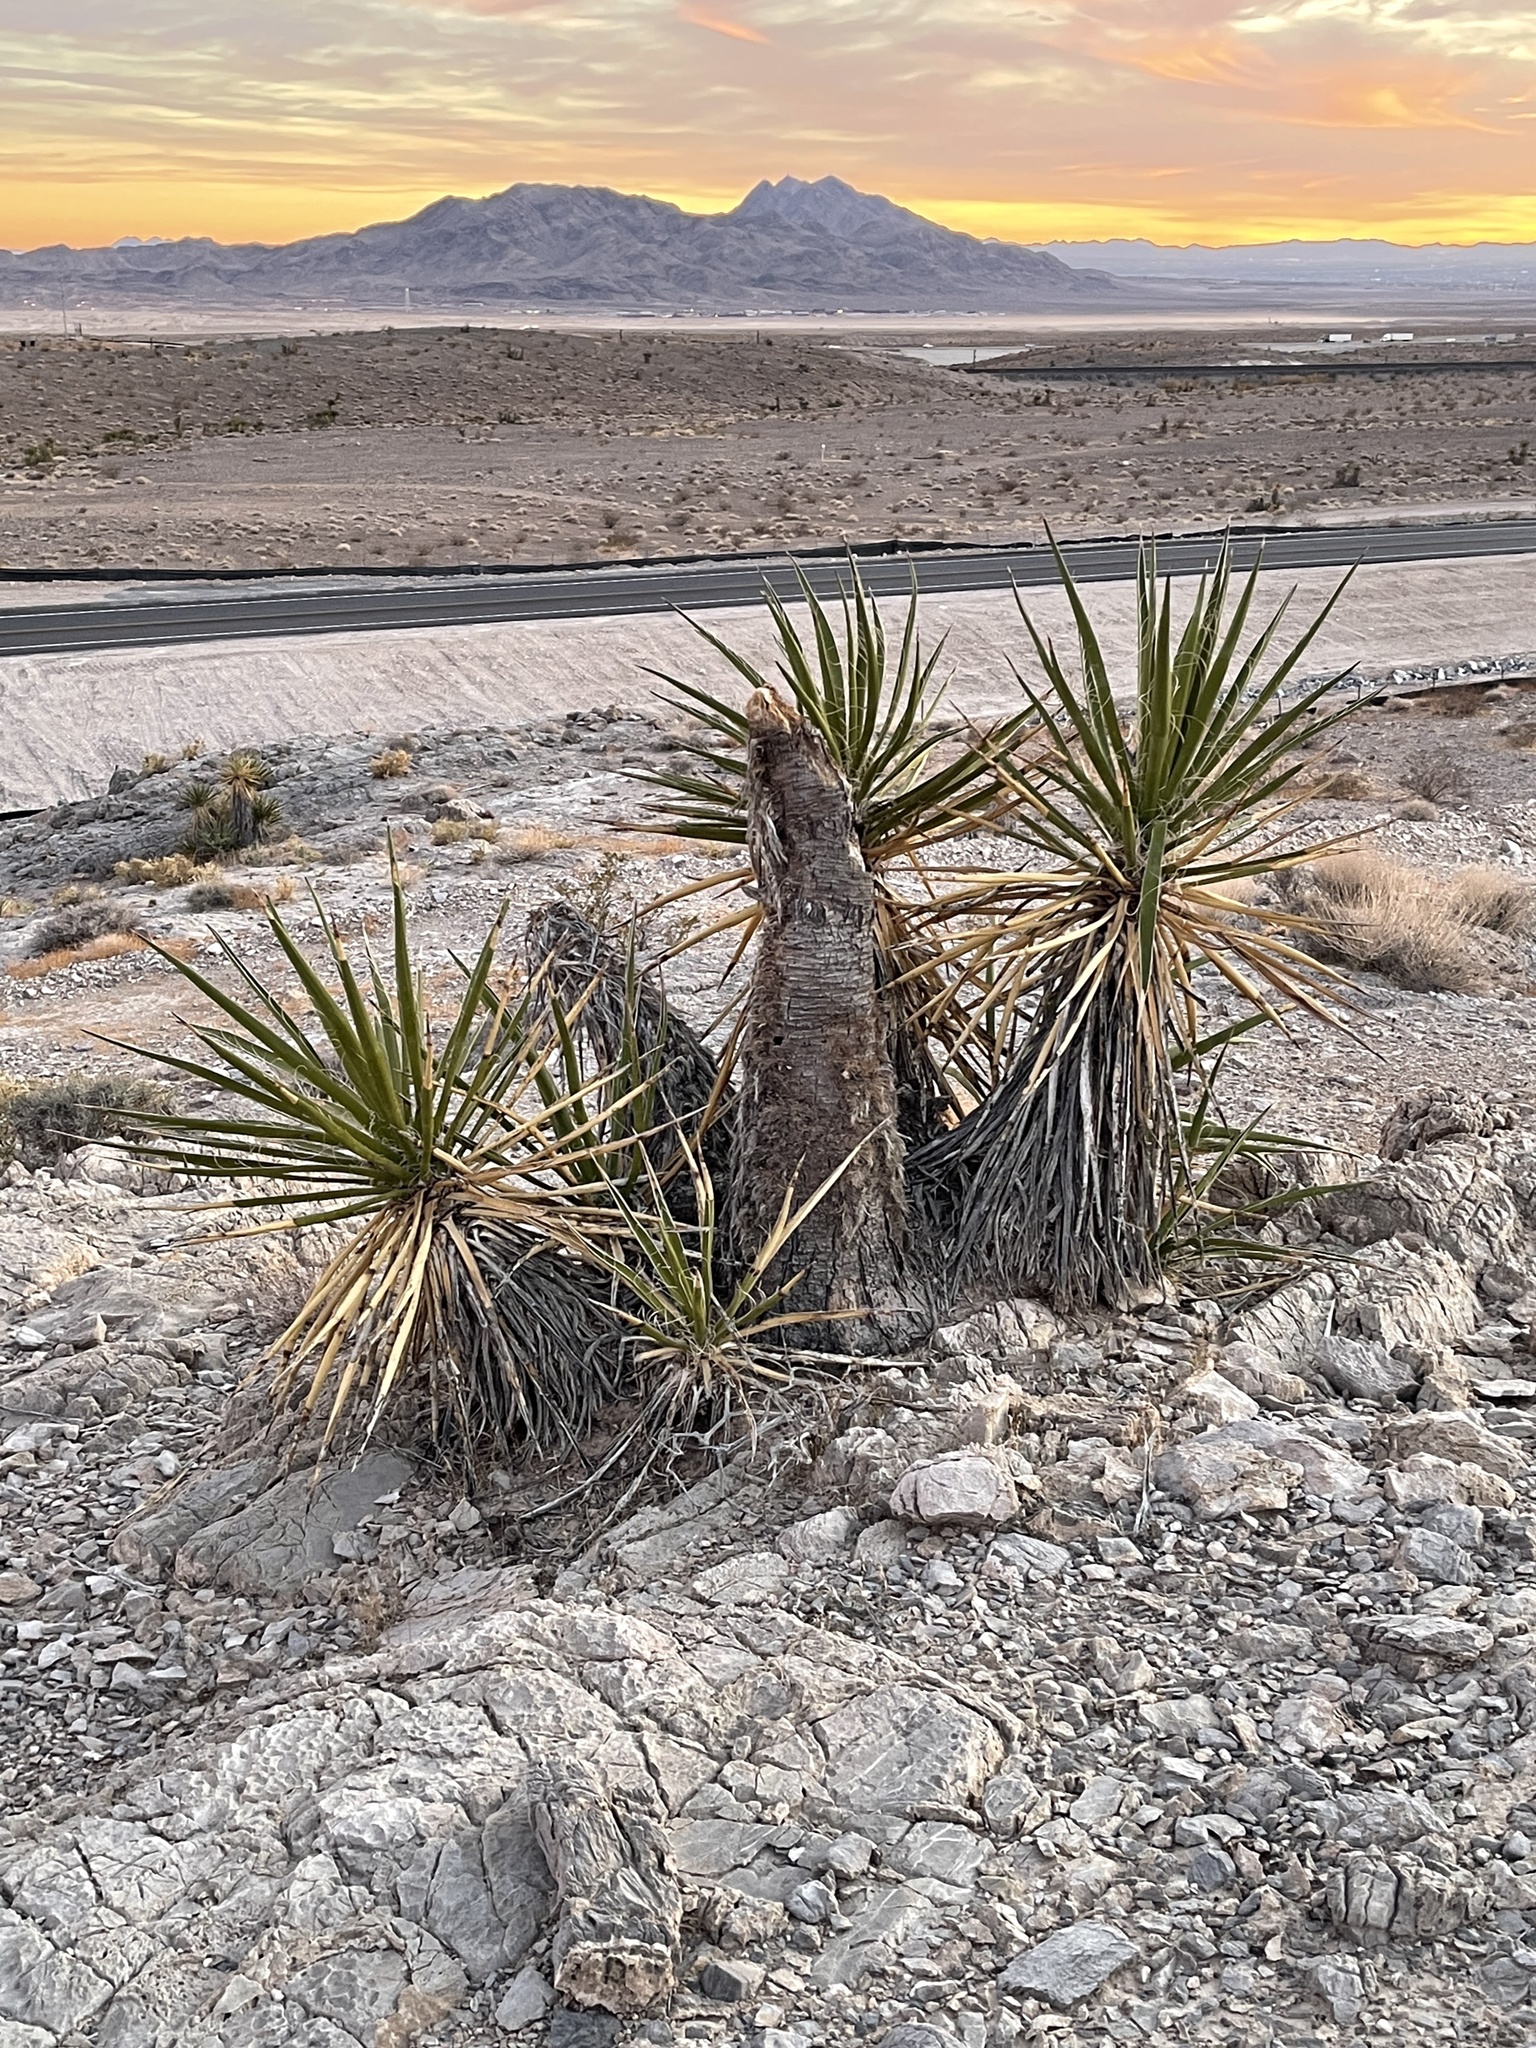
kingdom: Plantae
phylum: Tracheophyta
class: Liliopsida
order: Asparagales
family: Asparagaceae
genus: Yucca
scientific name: Yucca schidigera
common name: Mojave yucca
